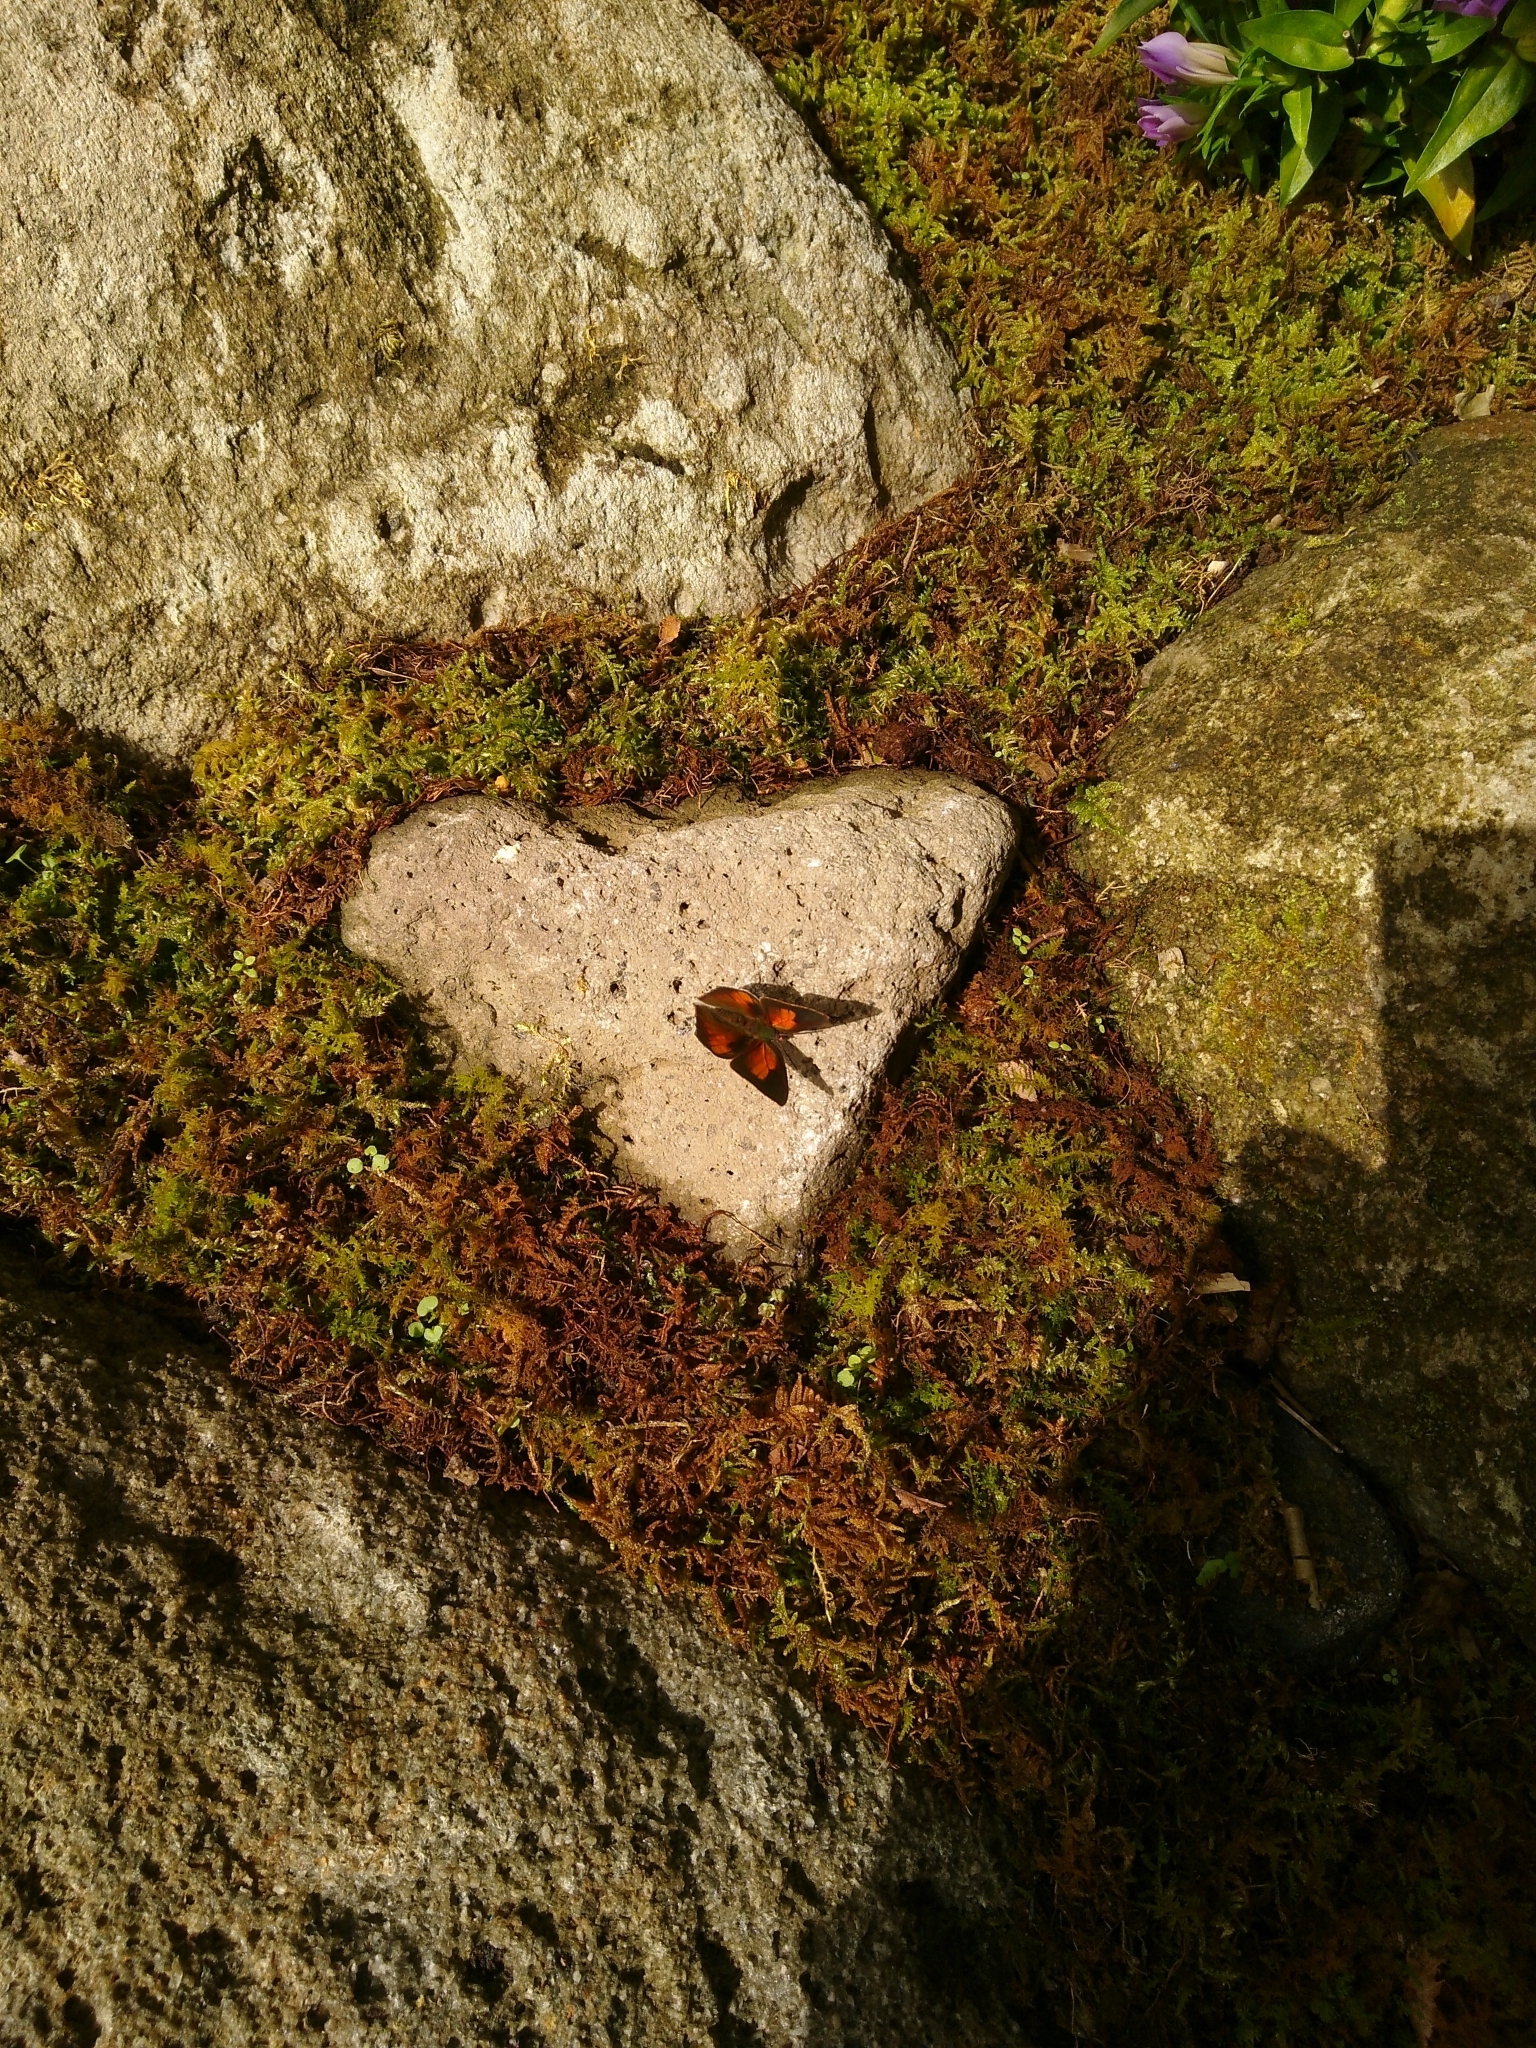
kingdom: Animalia
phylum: Arthropoda
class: Insecta
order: Lepidoptera
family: Lycaenidae
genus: Curetis
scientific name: Curetis acuta
